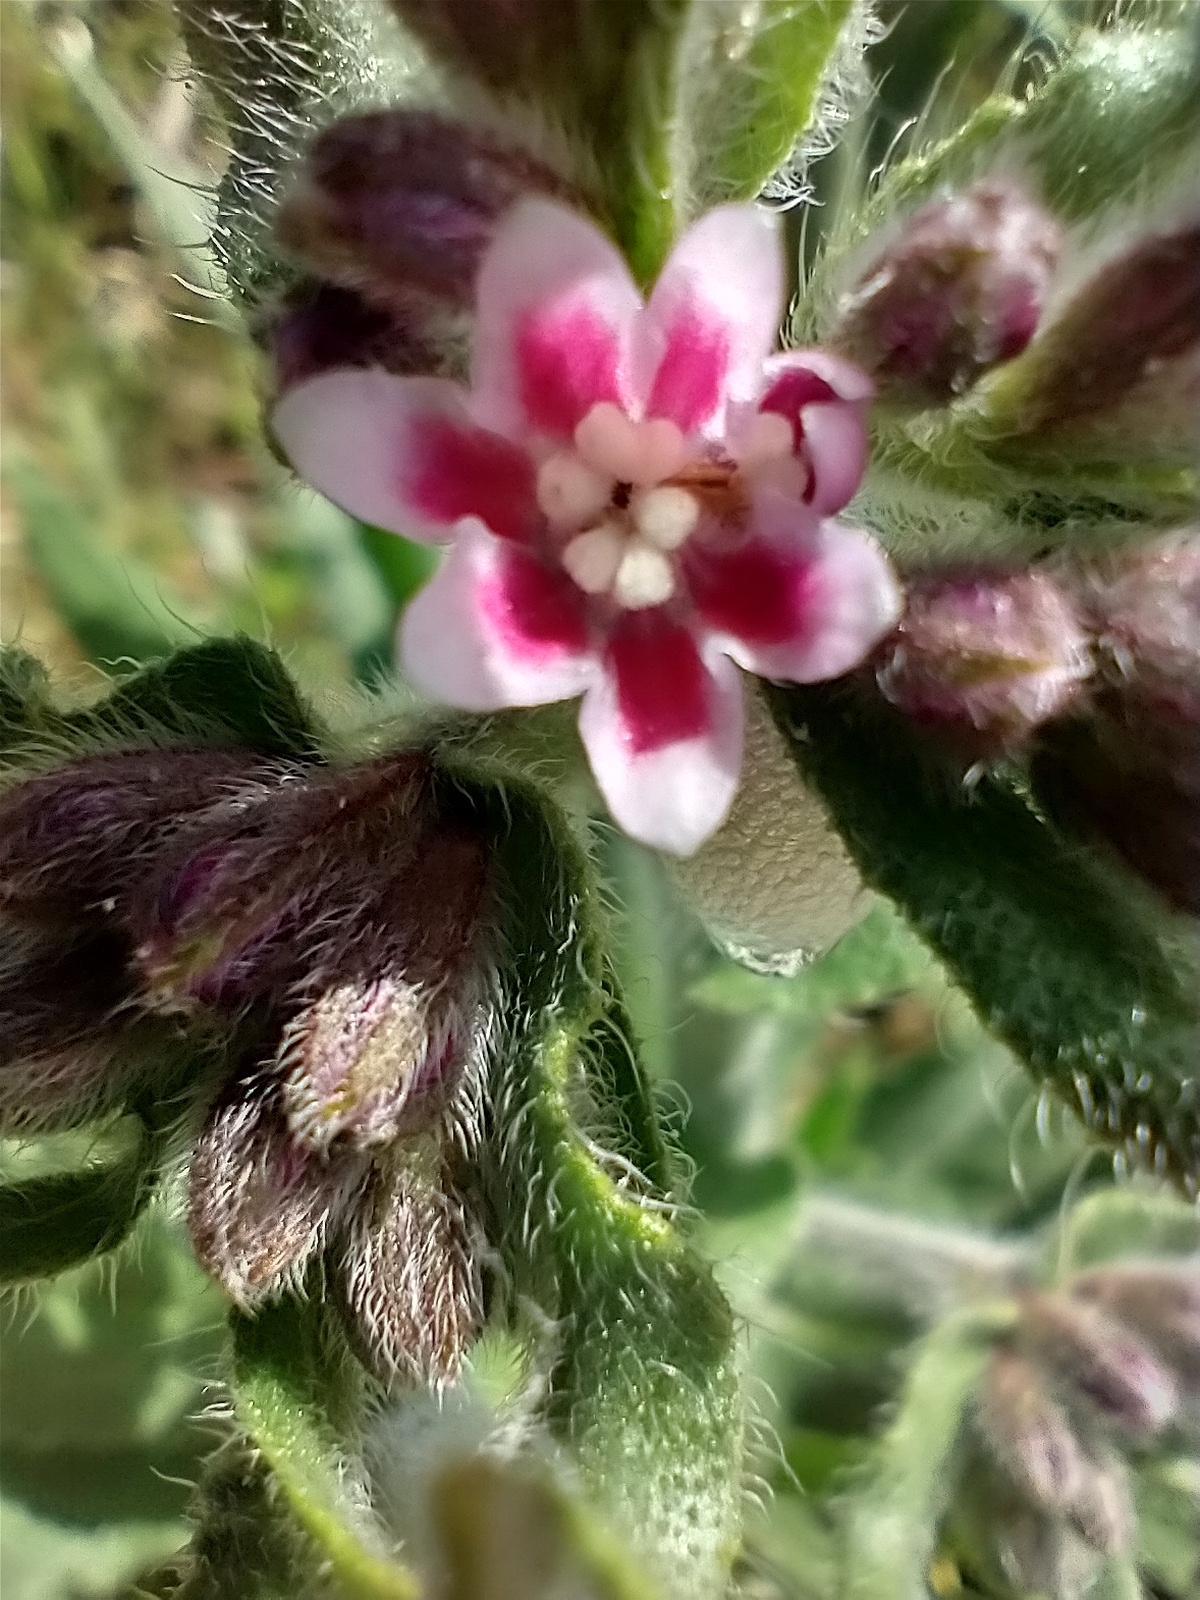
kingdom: Plantae
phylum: Tracheophyta
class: Magnoliopsida
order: Boraginales
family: Boraginaceae
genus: Anchusa
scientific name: Anchusa officinalis
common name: Alkanet
